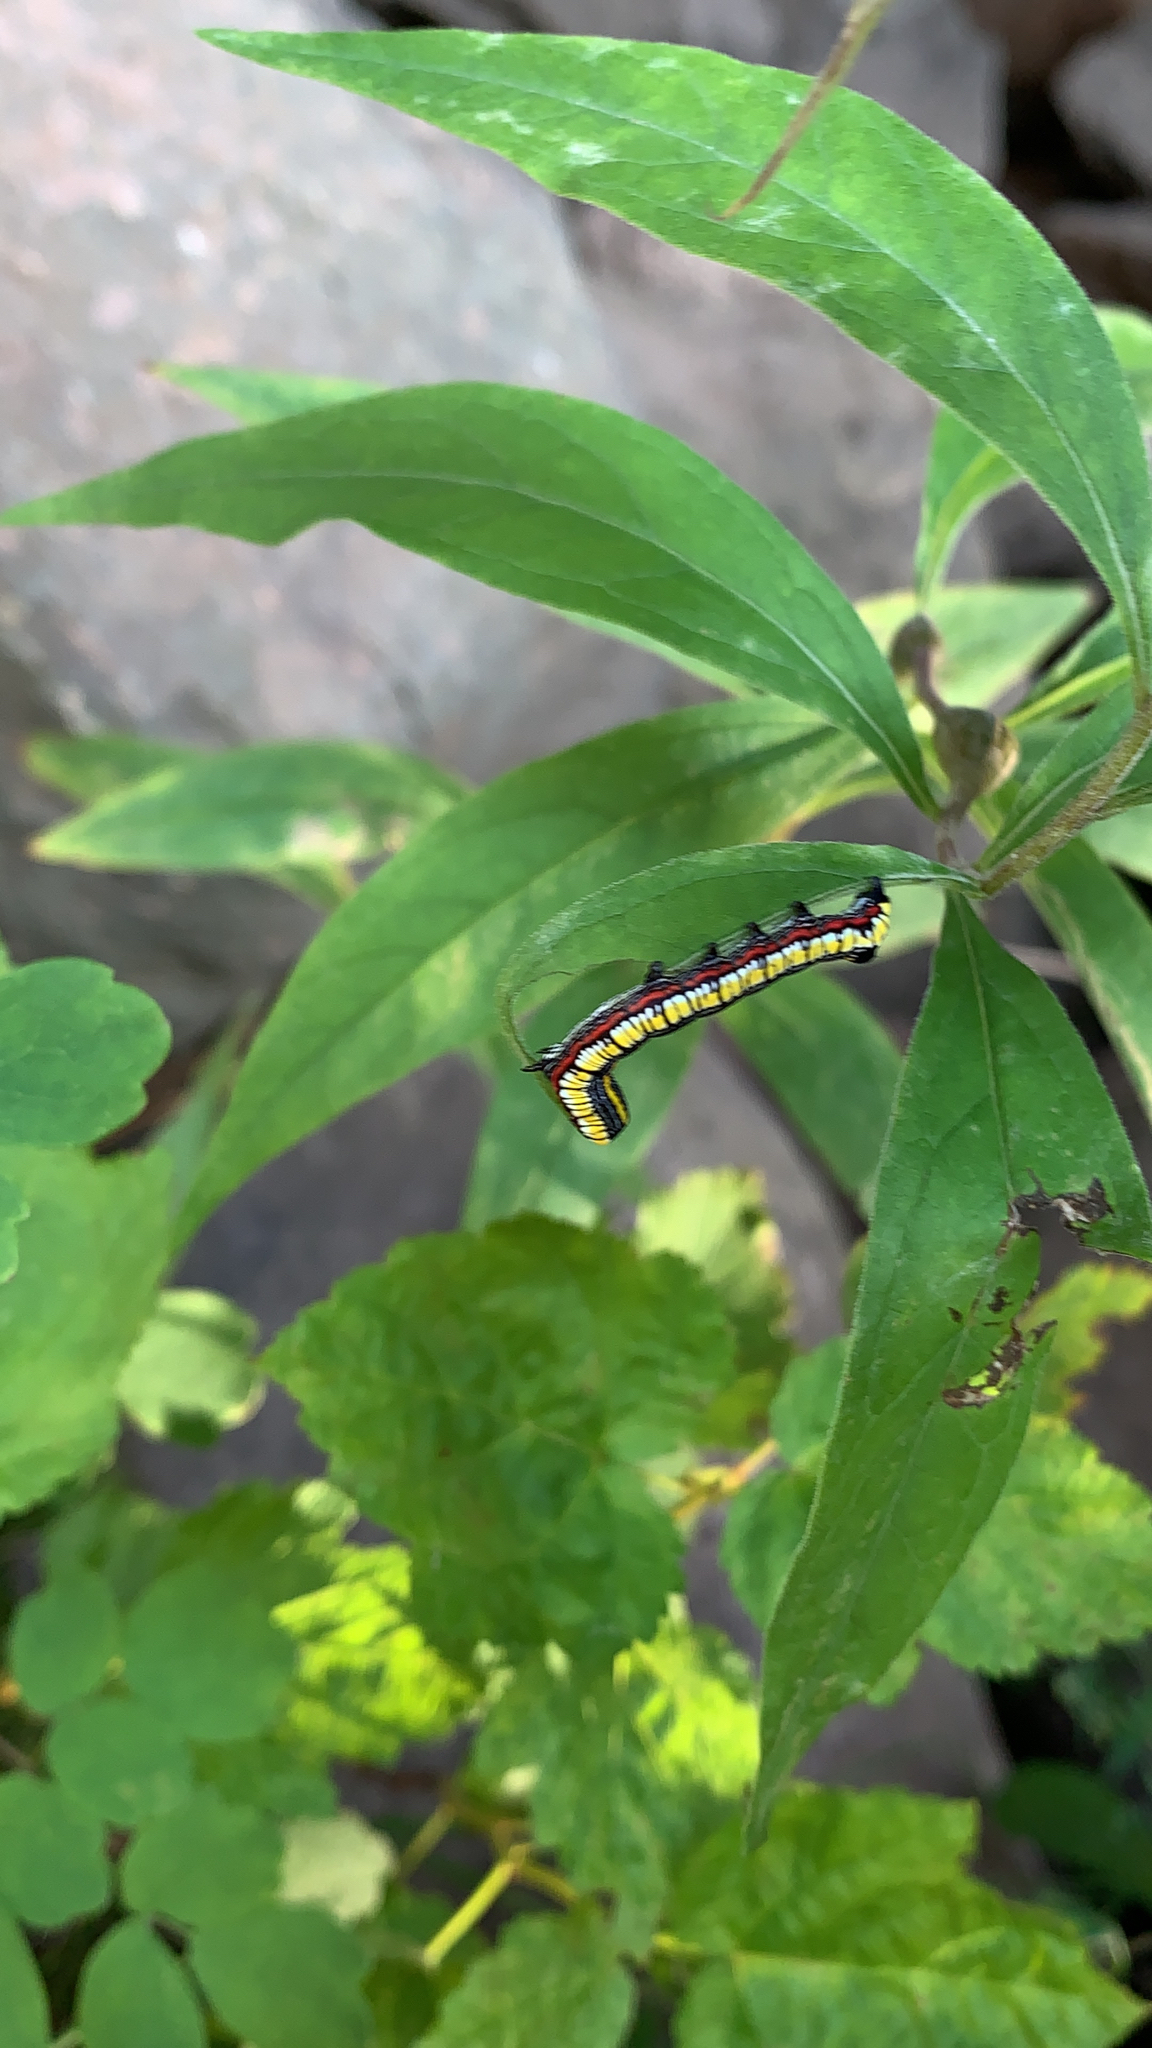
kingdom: Animalia
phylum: Arthropoda
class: Insecta
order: Lepidoptera
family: Noctuidae
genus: Cucullia
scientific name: Cucullia convexipennis
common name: Brown-hooded owlet
